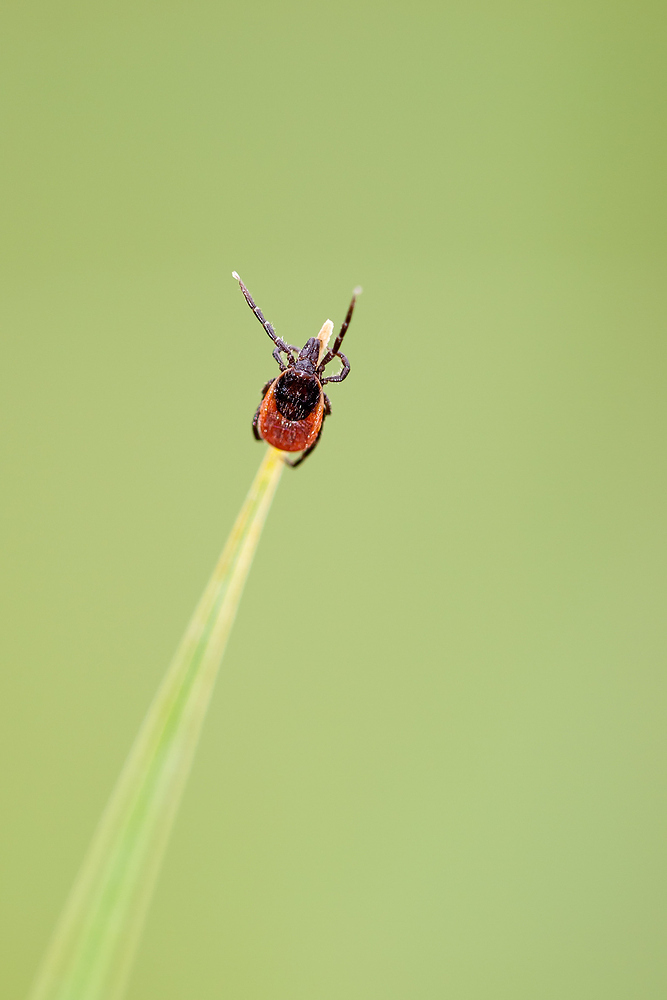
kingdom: Animalia
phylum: Arthropoda
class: Arachnida
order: Ixodida
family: Ixodidae
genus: Ixodes
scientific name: Ixodes ricinus
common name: Castor bean tick
